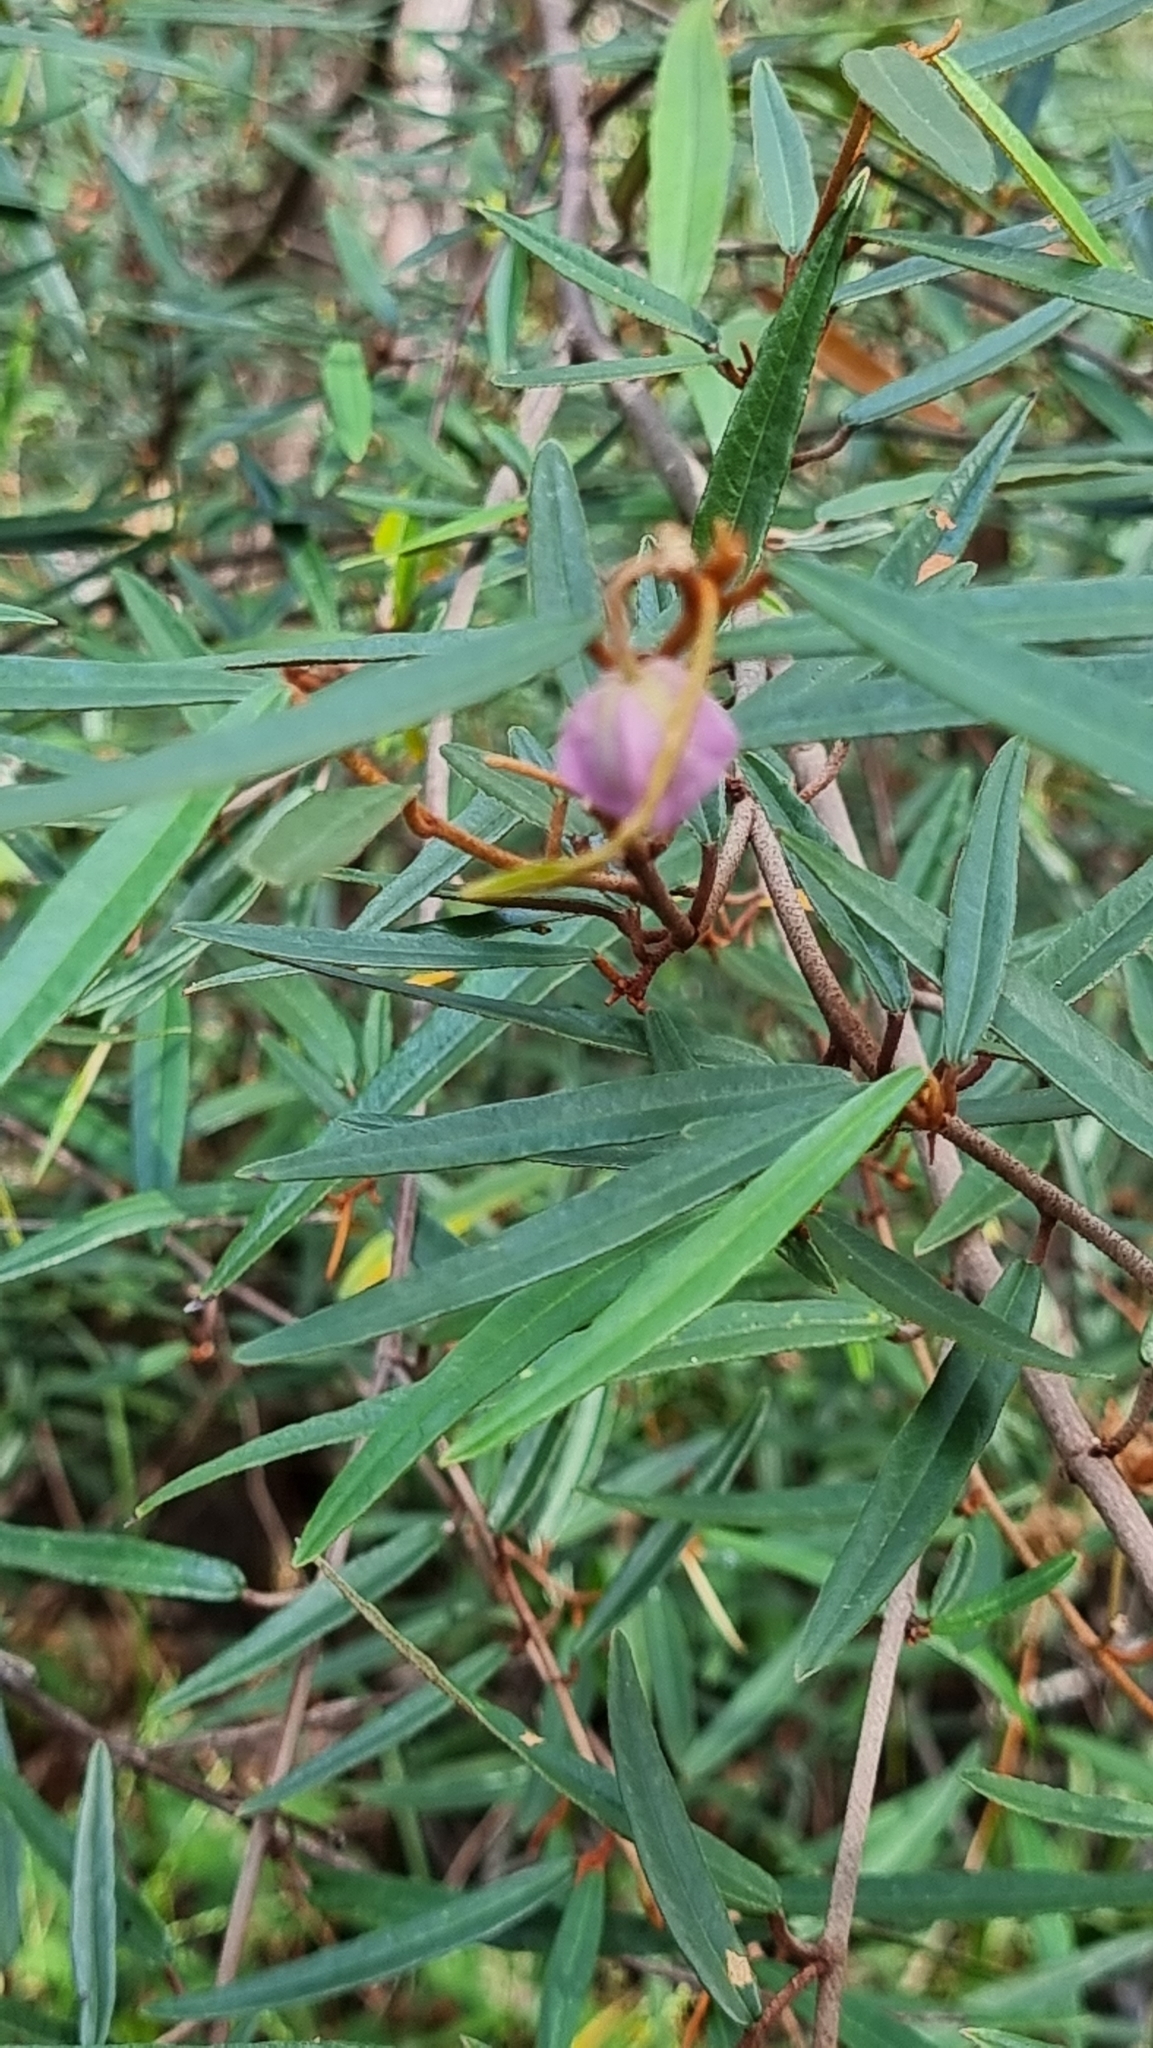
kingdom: Plantae
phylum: Tracheophyta
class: Magnoliopsida
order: Malvales
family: Malvaceae
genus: Seringia
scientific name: Seringia hillii
